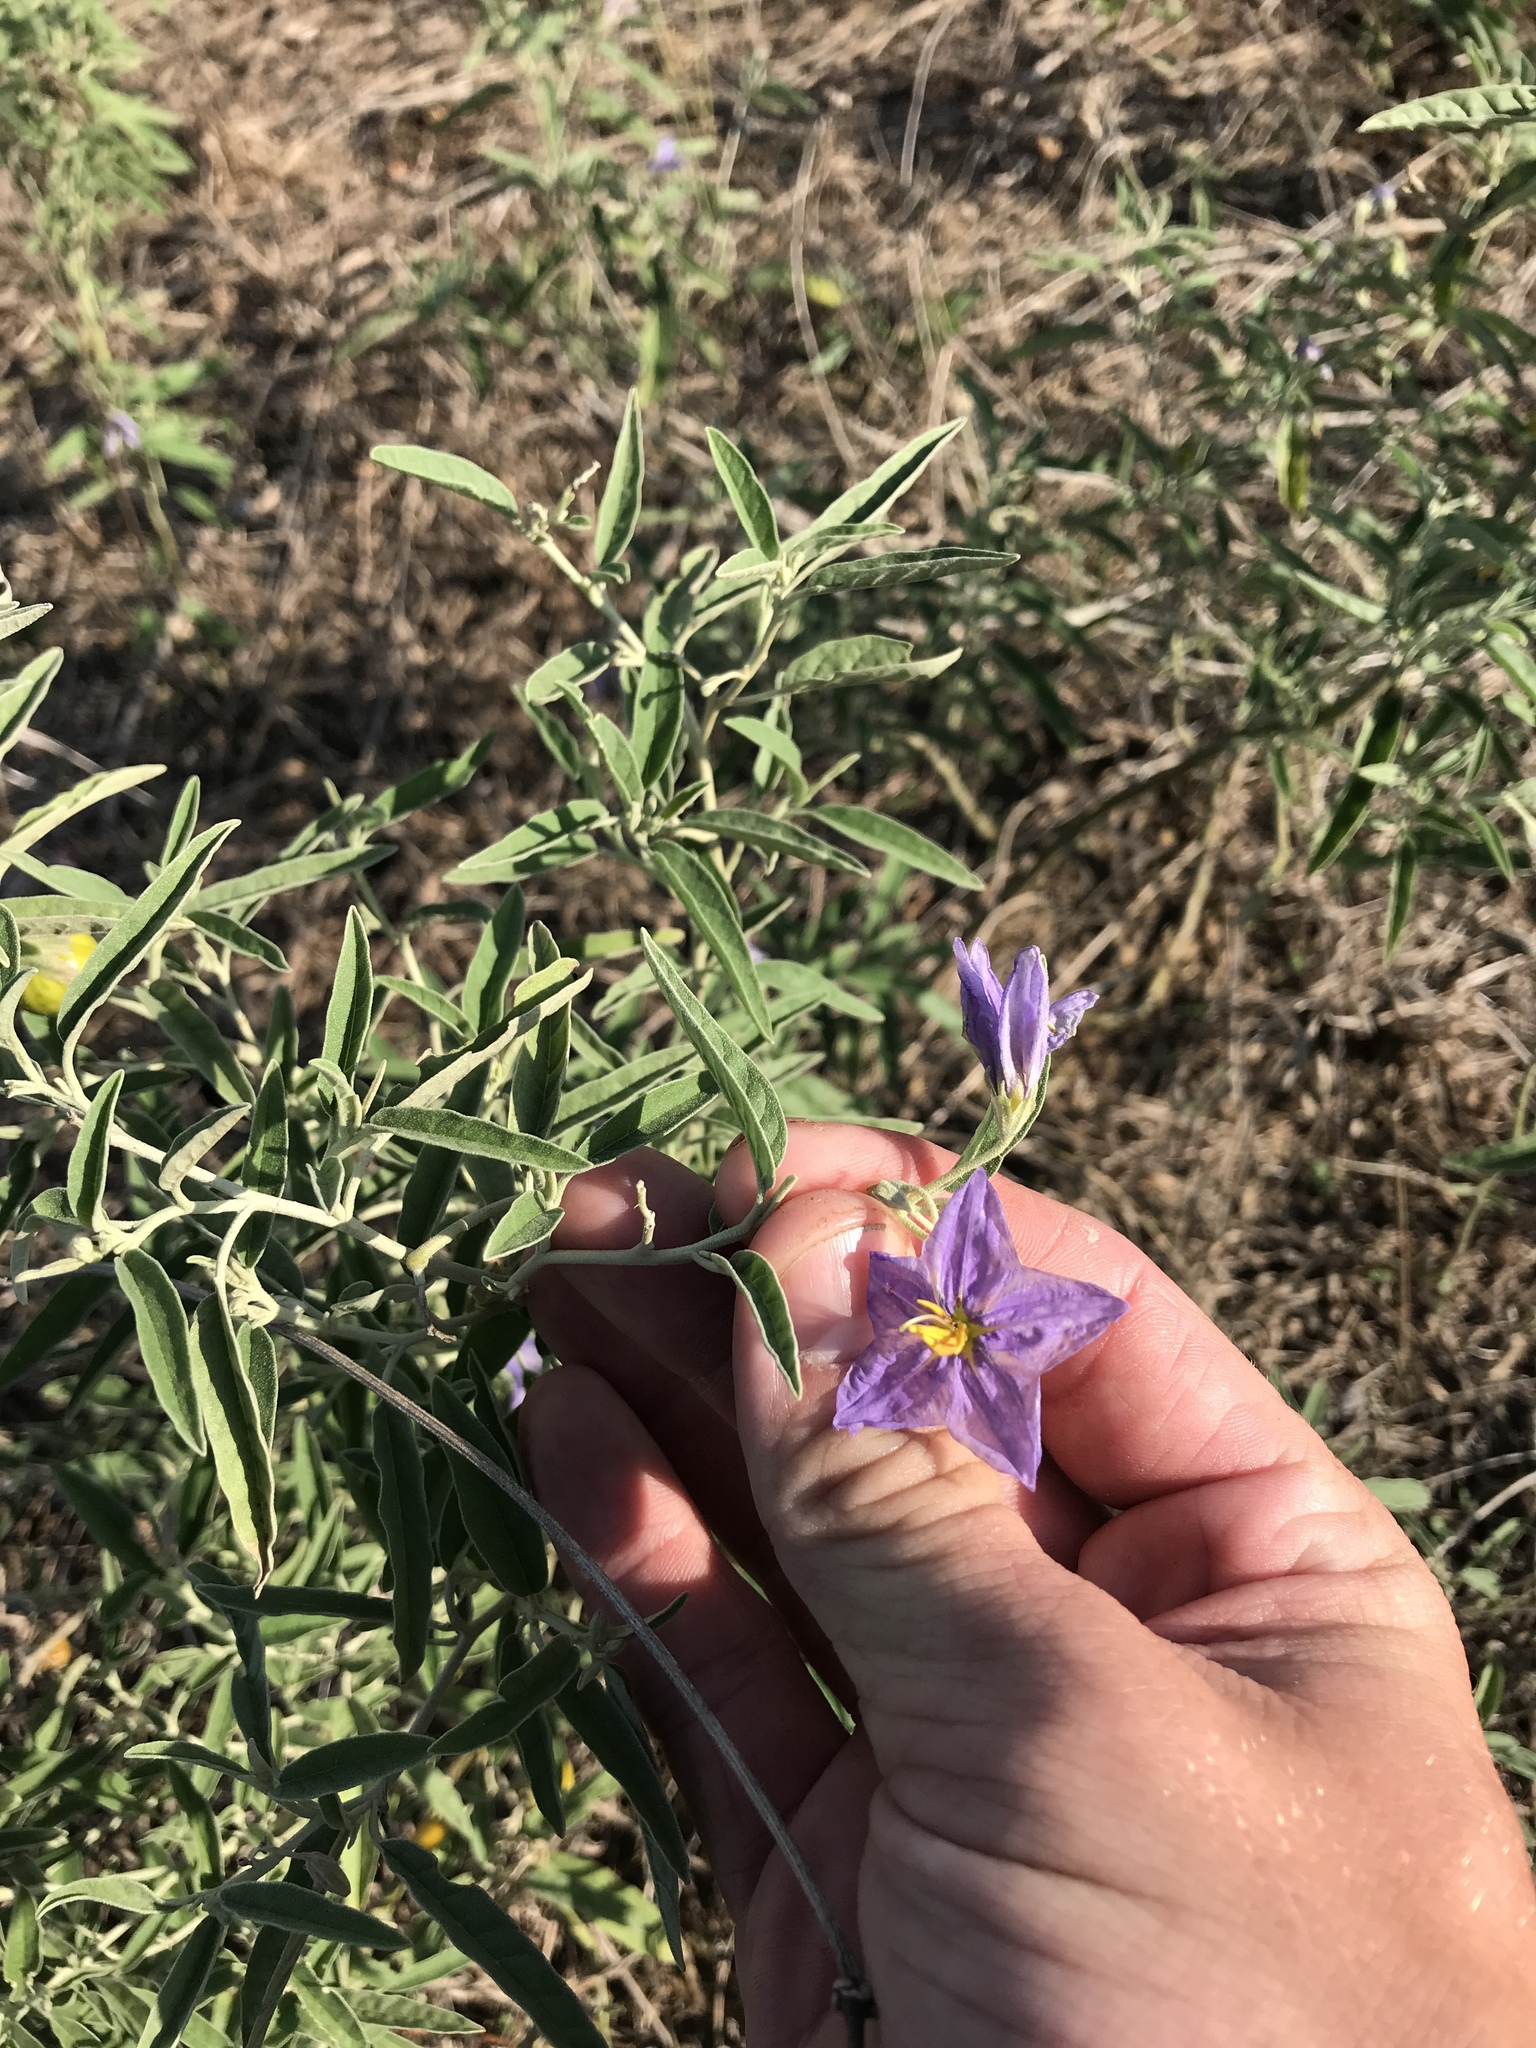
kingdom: Plantae
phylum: Tracheophyta
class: Magnoliopsida
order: Solanales
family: Solanaceae
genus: Solanum
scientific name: Solanum elaeagnifolium
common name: Silverleaf nightshade
